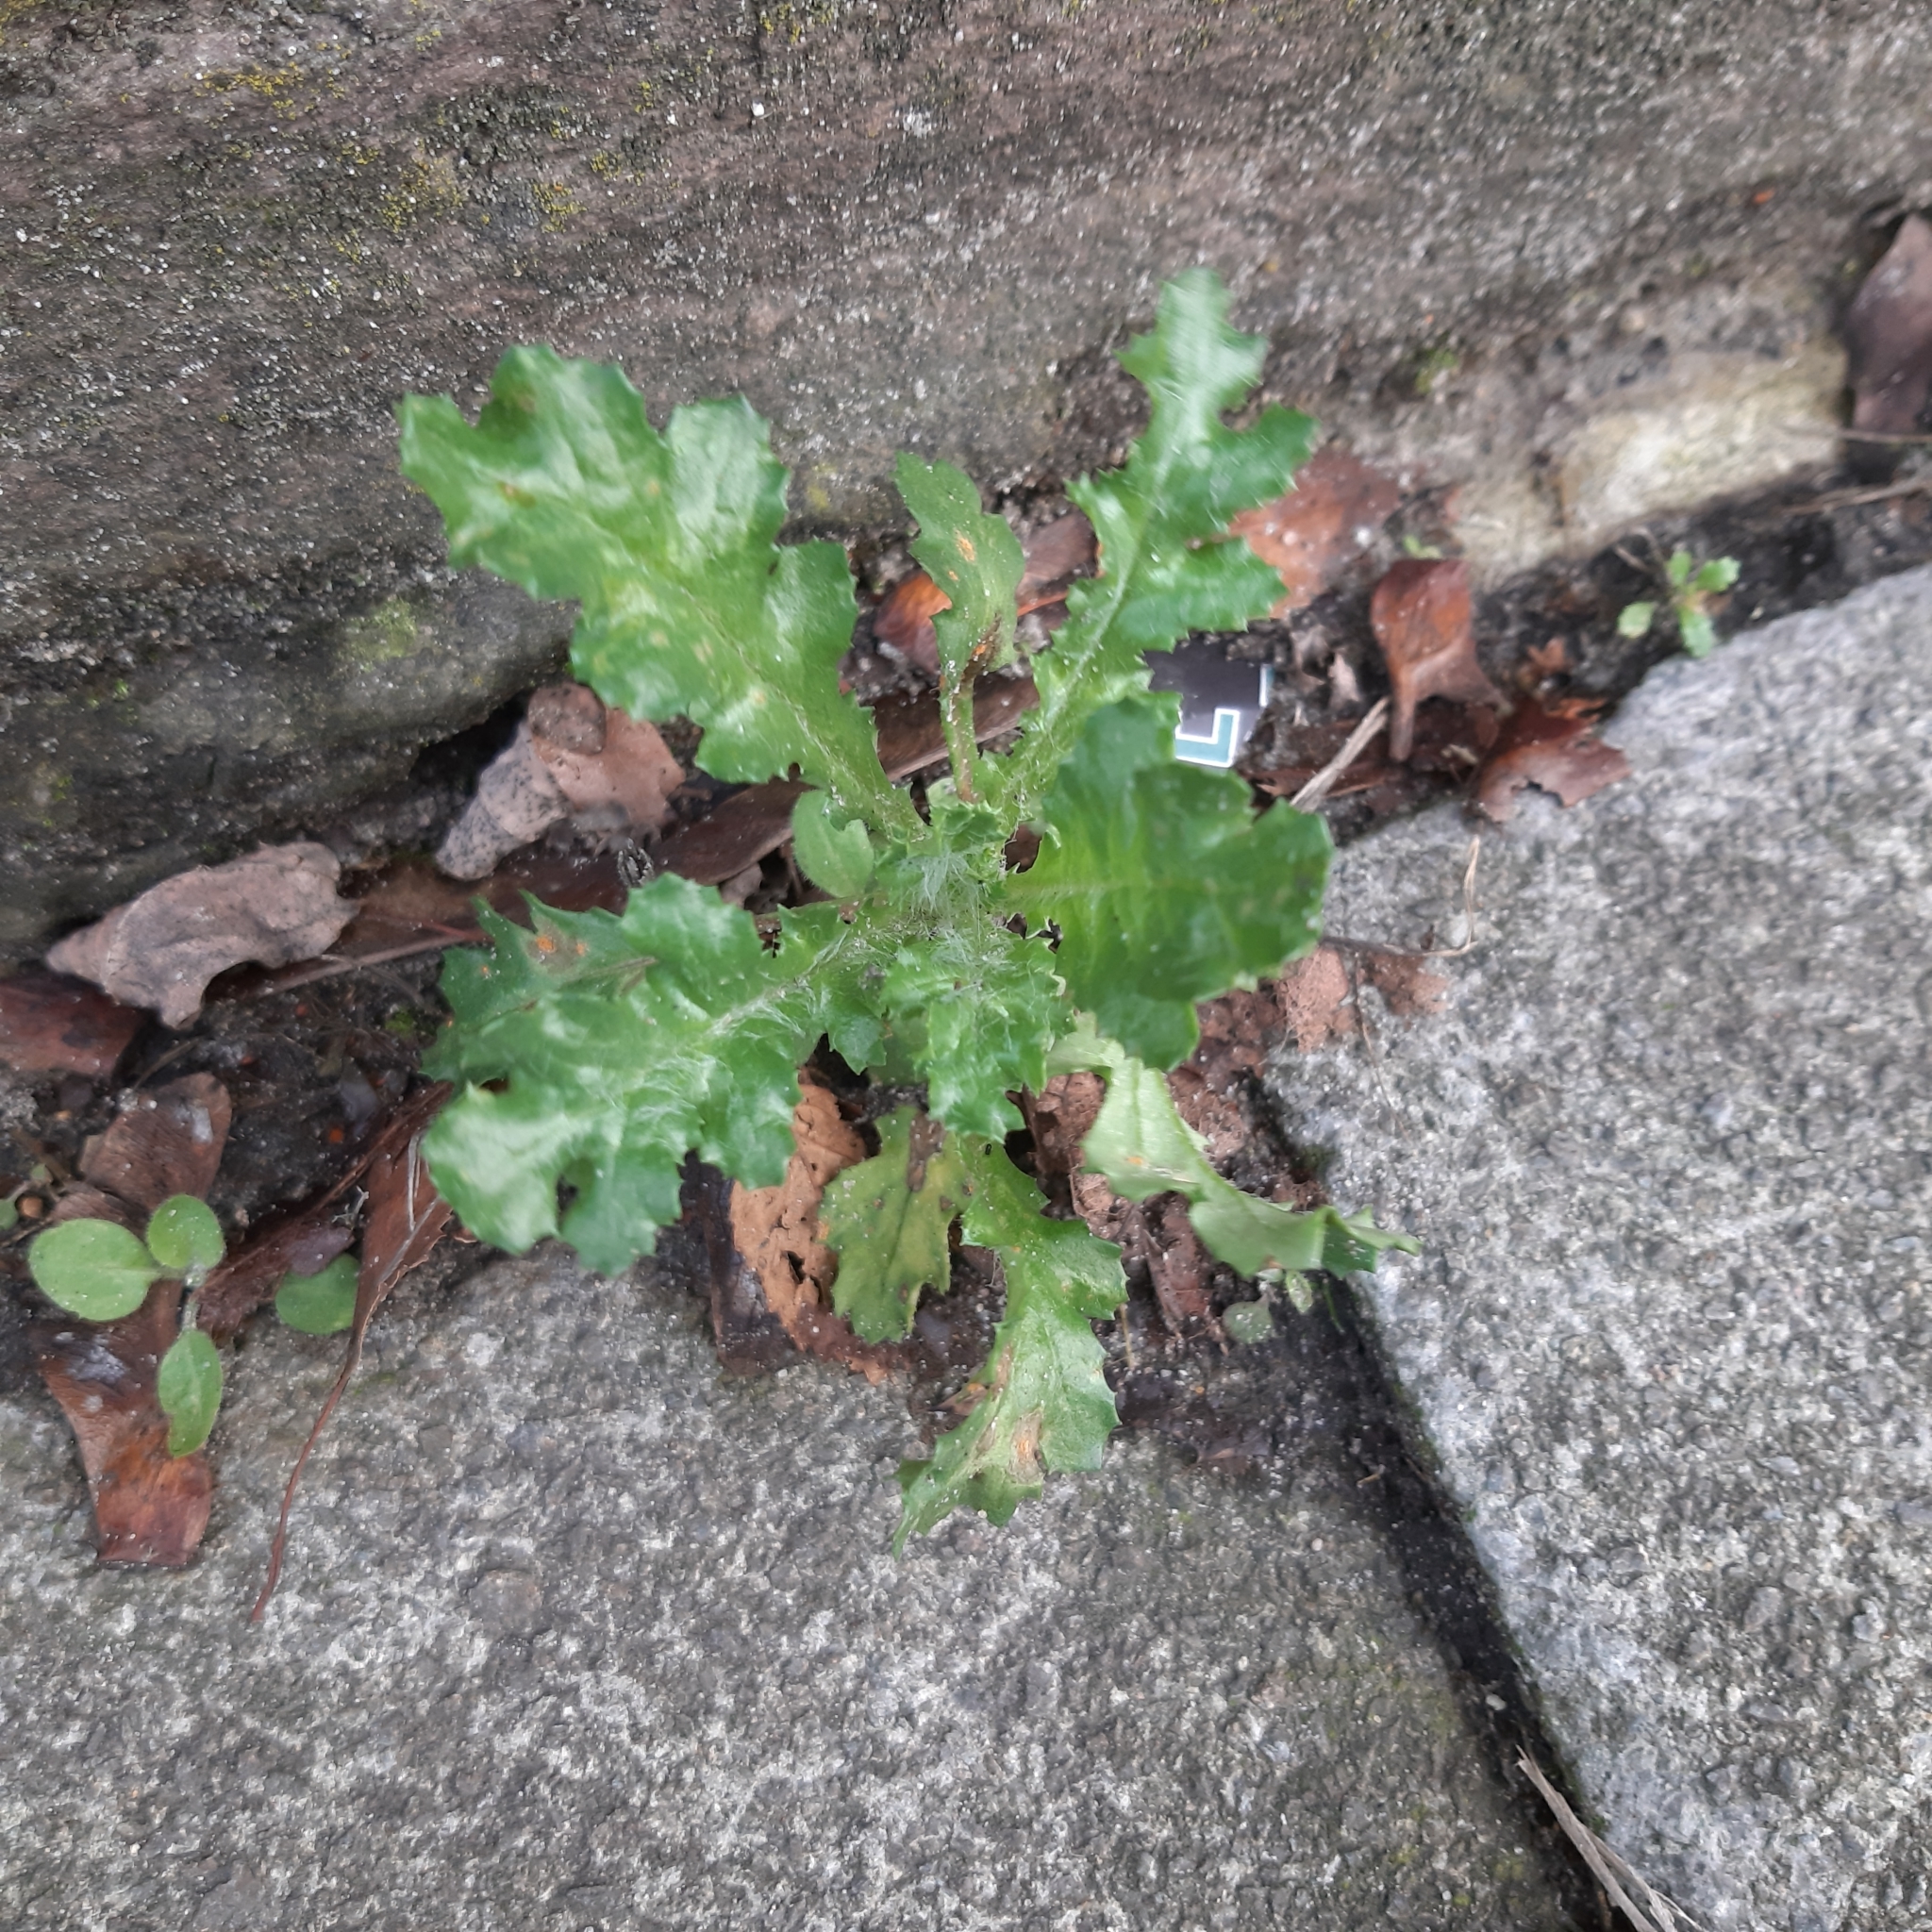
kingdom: Plantae
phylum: Tracheophyta
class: Magnoliopsida
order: Asterales
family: Asteraceae
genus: Senecio
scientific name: Senecio vulgaris
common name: Old-man-in-the-spring
